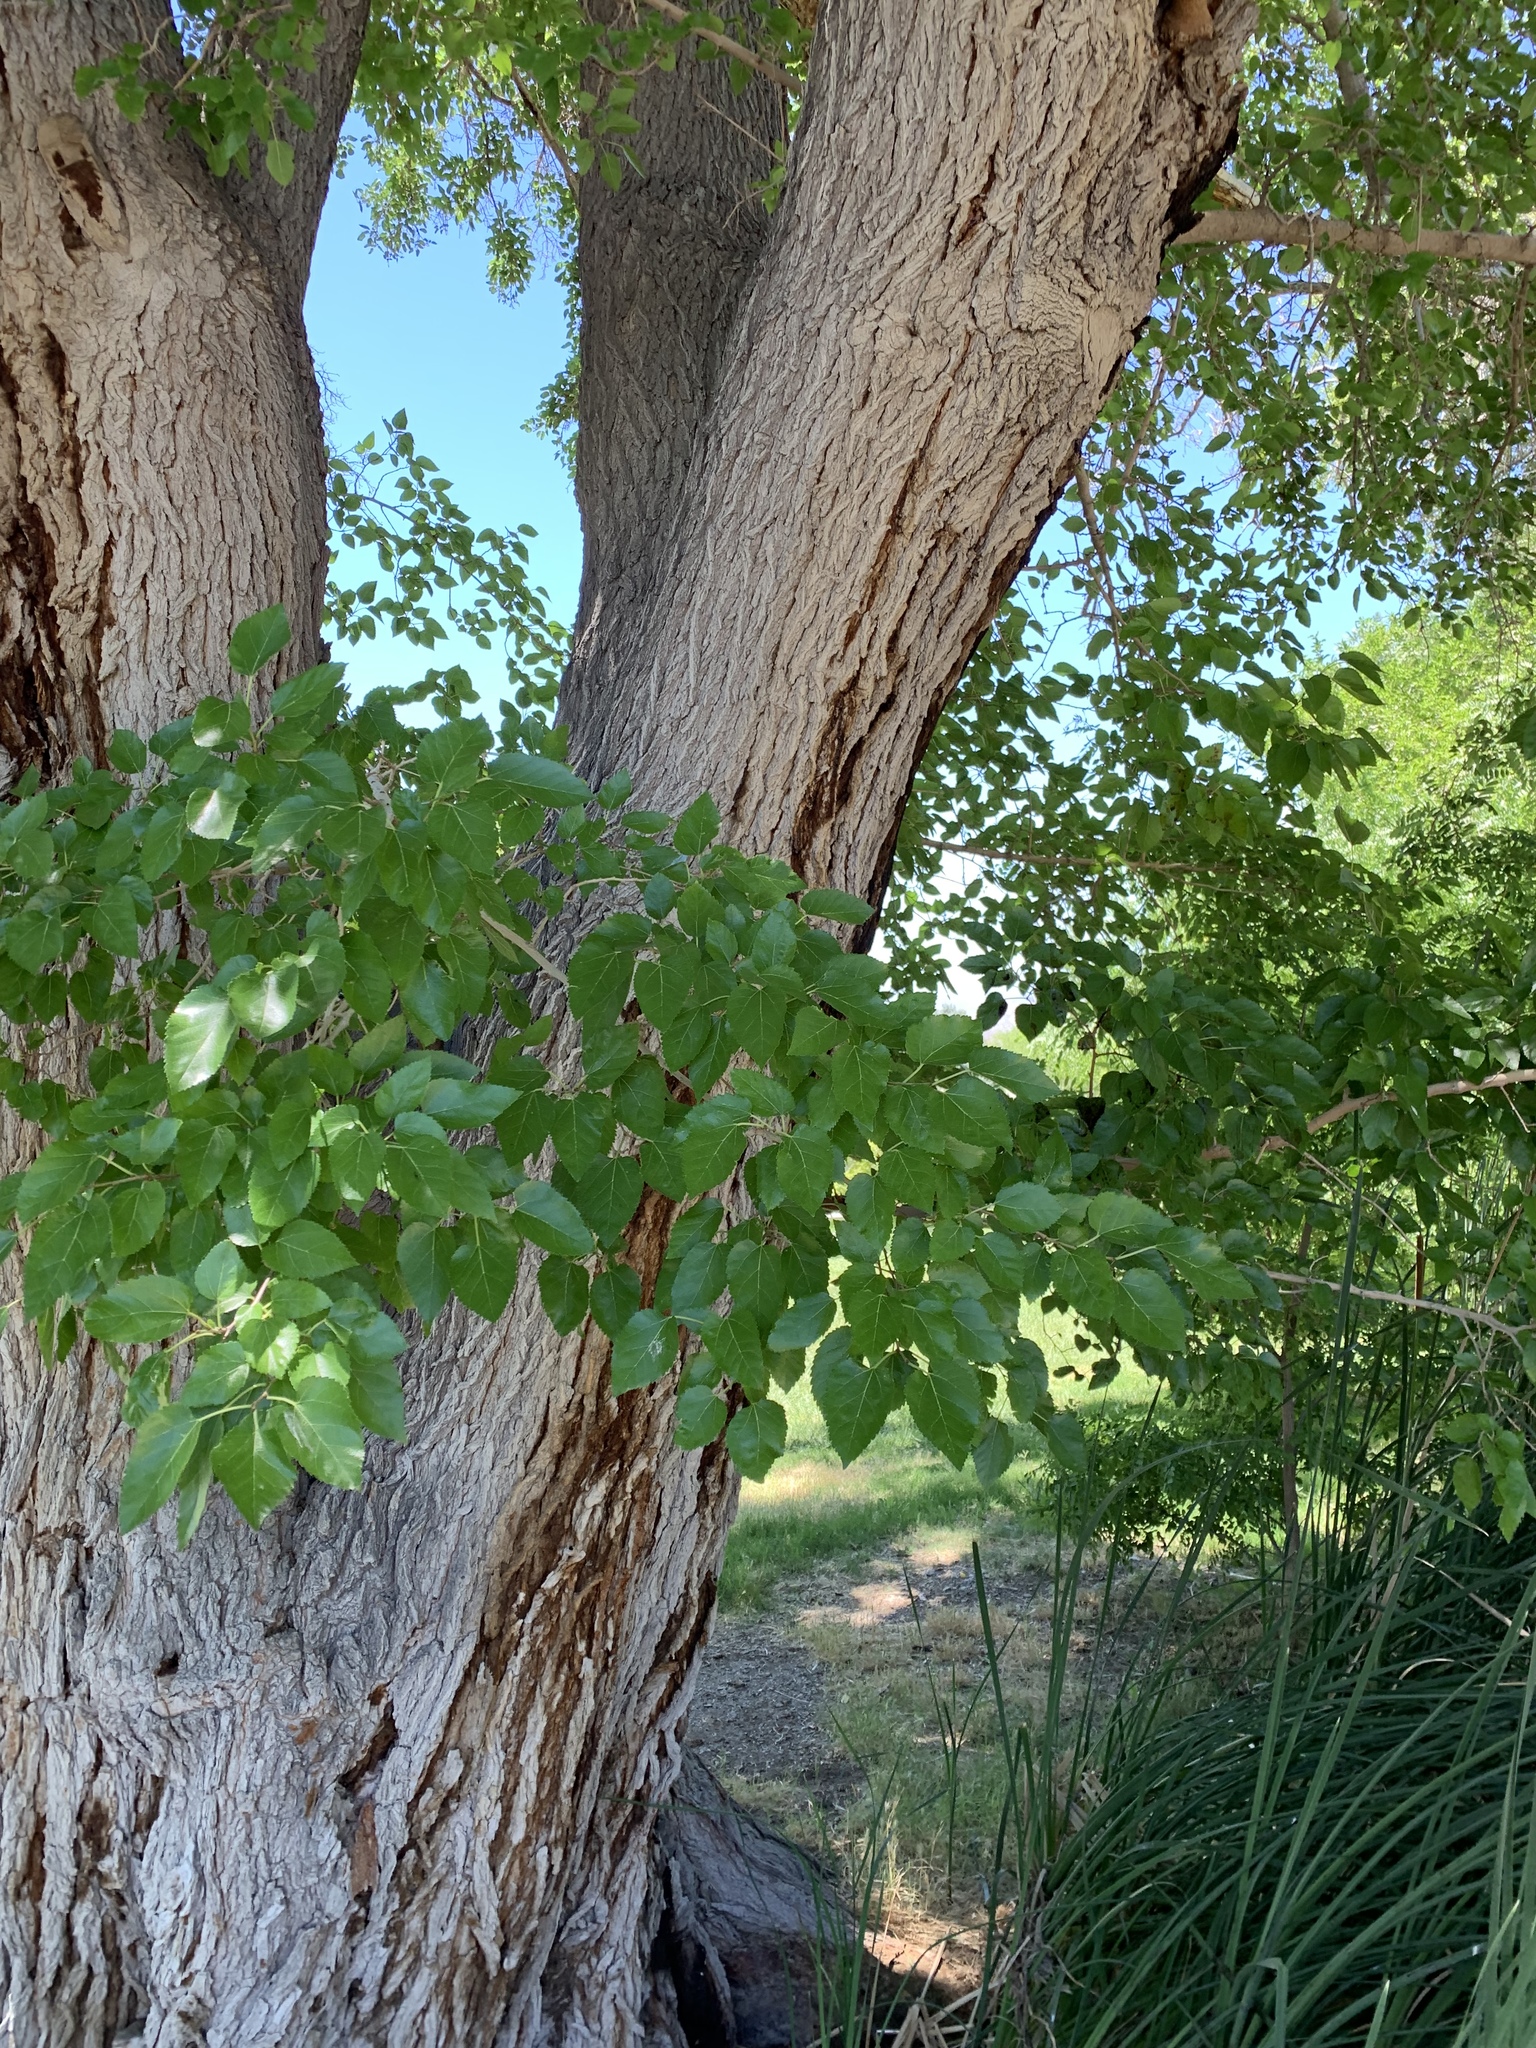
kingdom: Plantae
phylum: Tracheophyta
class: Magnoliopsida
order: Rosales
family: Moraceae
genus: Morus
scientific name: Morus alba
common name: White mulberry
